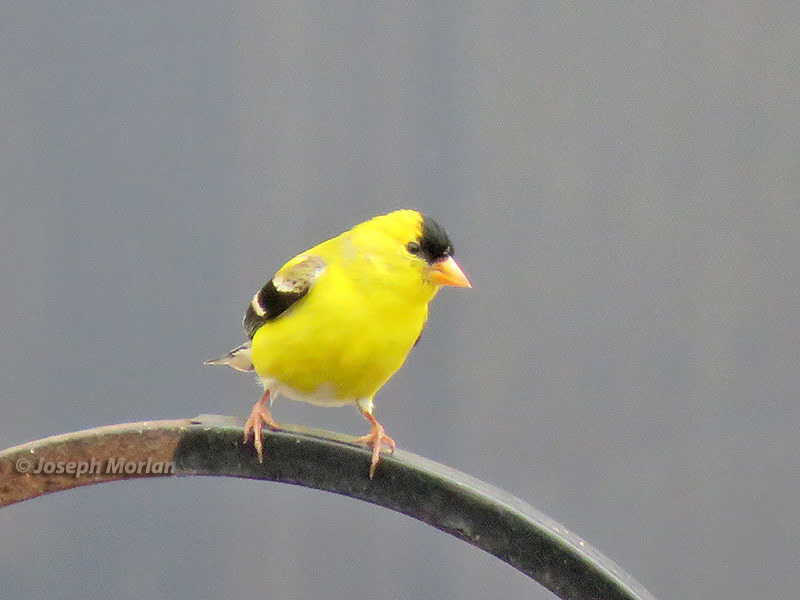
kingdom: Animalia
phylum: Chordata
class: Aves
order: Passeriformes
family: Fringillidae
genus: Spinus
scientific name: Spinus tristis
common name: American goldfinch
